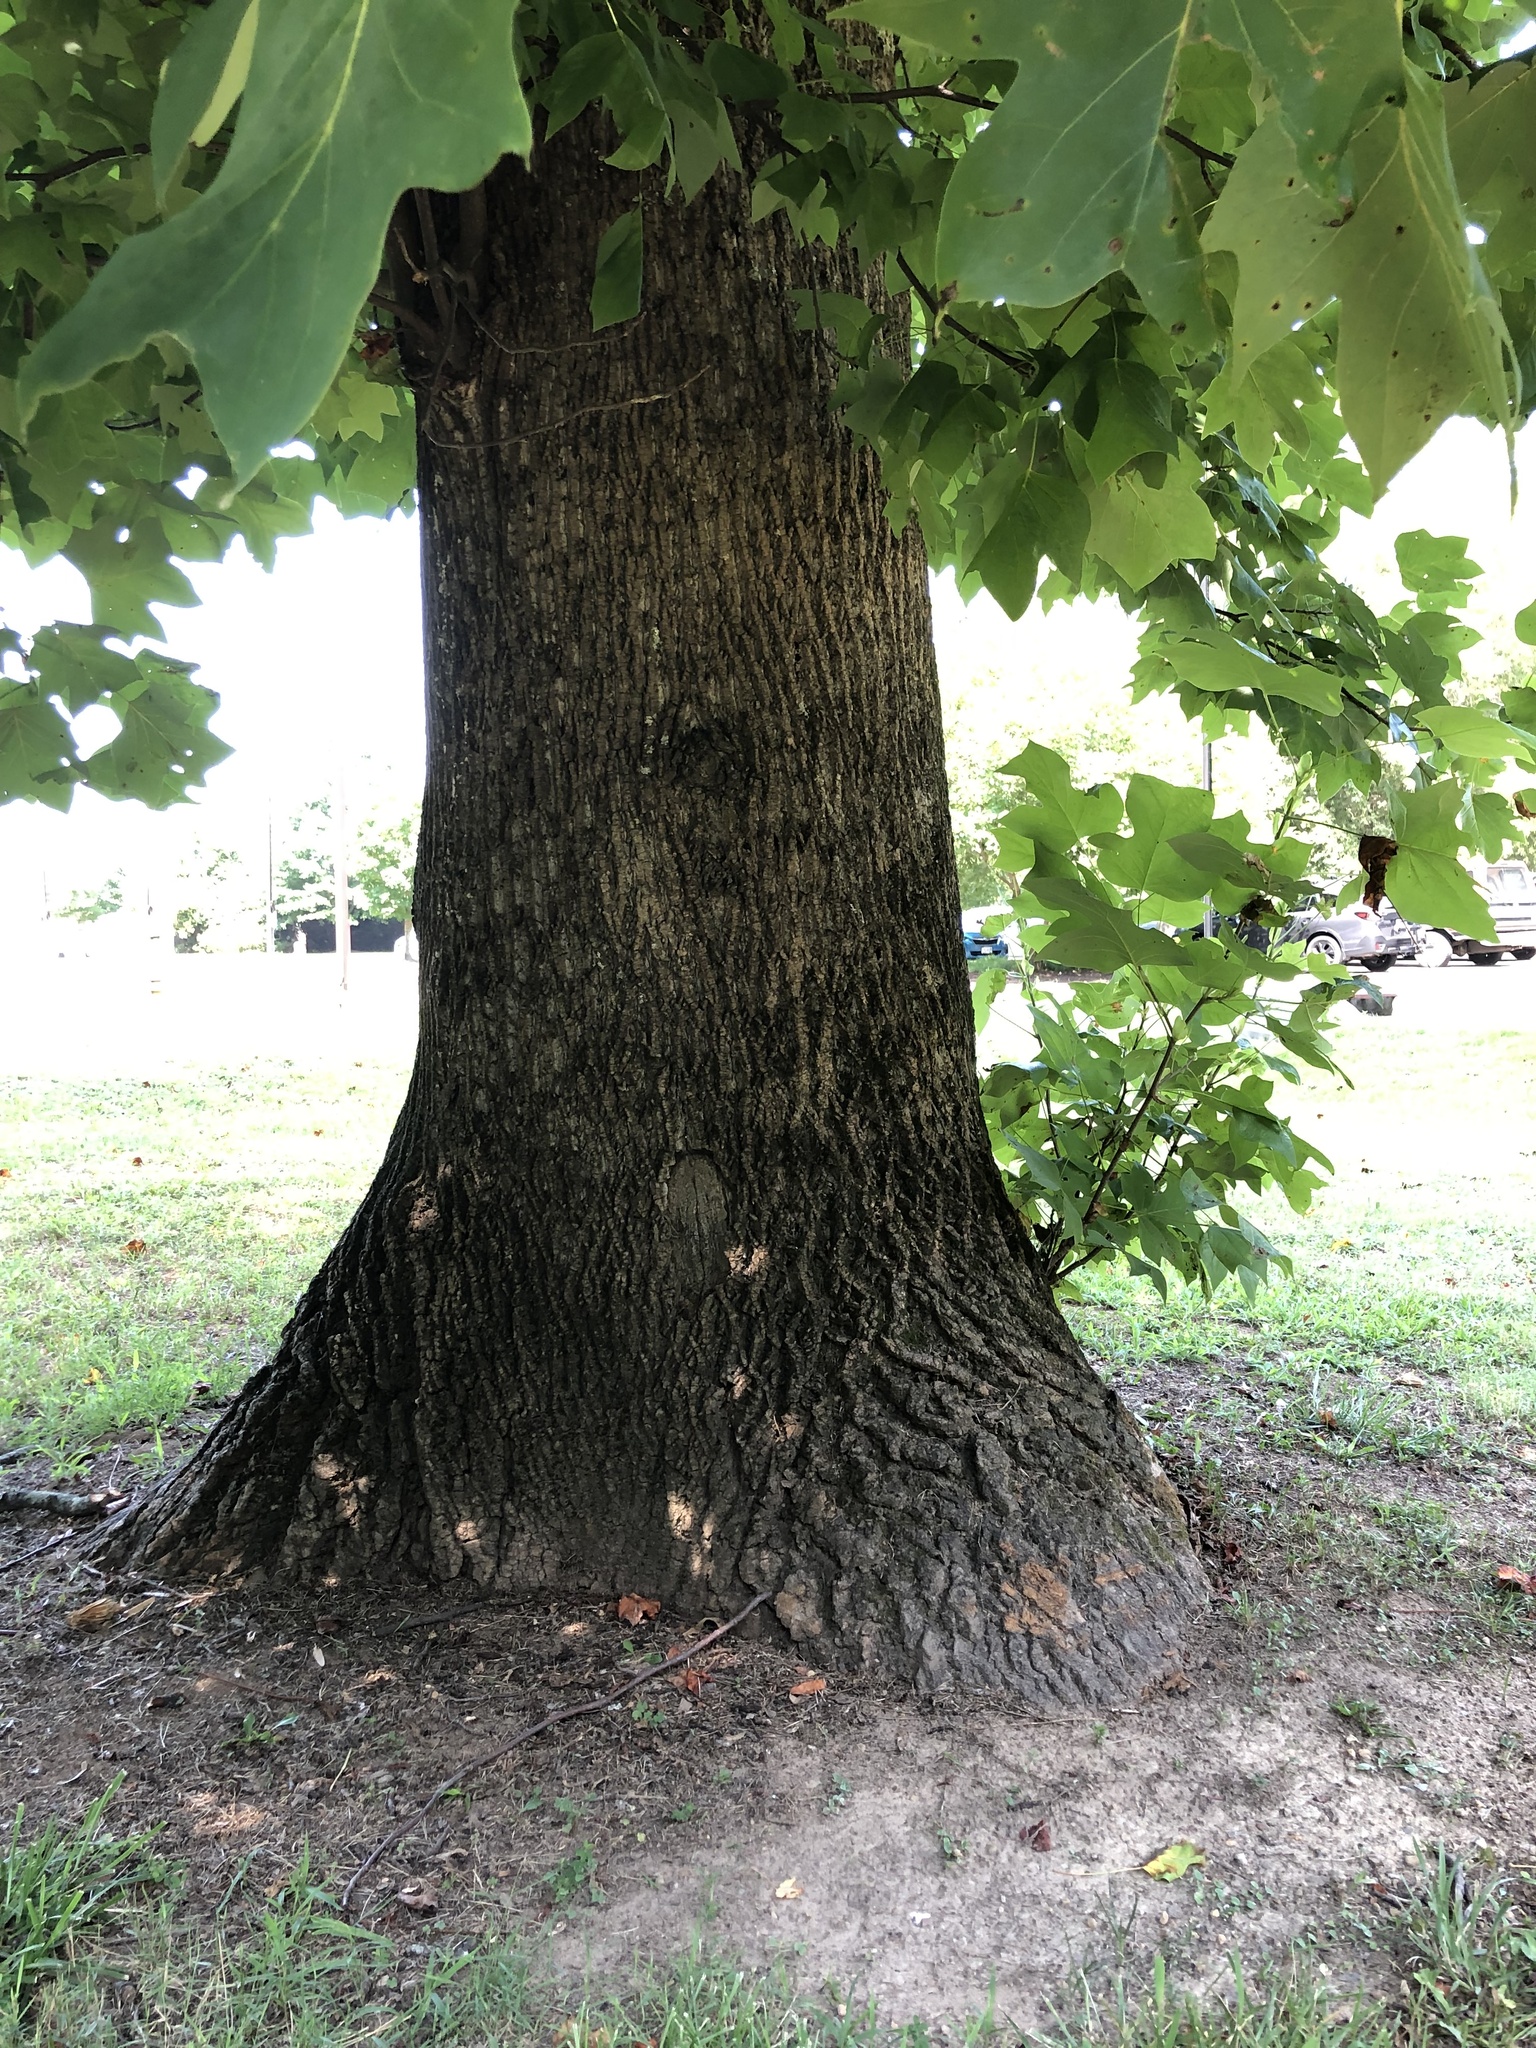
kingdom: Plantae
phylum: Tracheophyta
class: Magnoliopsida
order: Magnoliales
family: Magnoliaceae
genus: Liriodendron
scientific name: Liriodendron tulipifera
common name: Tulip tree
